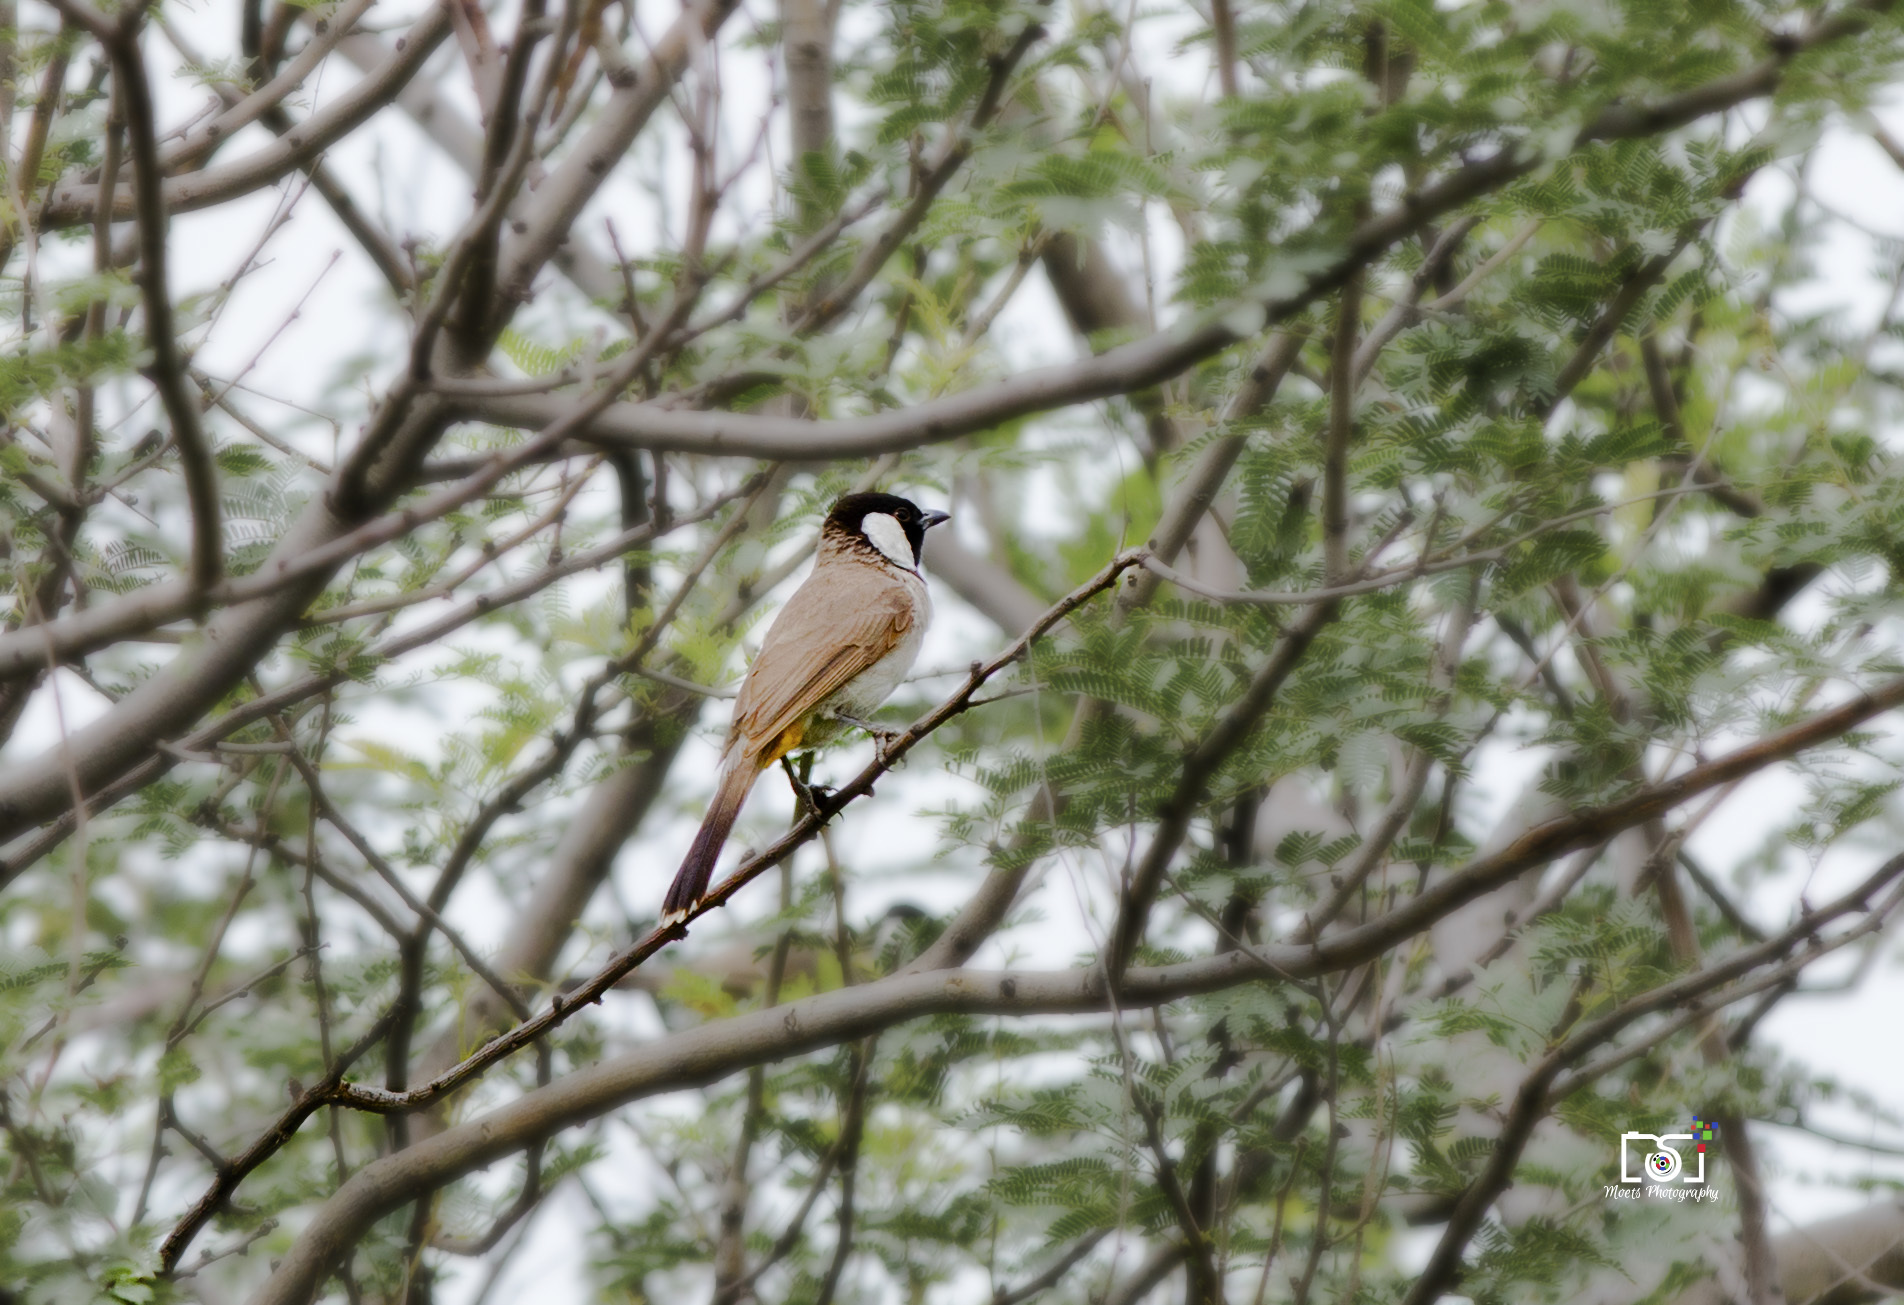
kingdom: Animalia
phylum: Chordata
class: Aves
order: Passeriformes
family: Pycnonotidae
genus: Pycnonotus
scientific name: Pycnonotus leucotis
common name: White-eared bulbul
